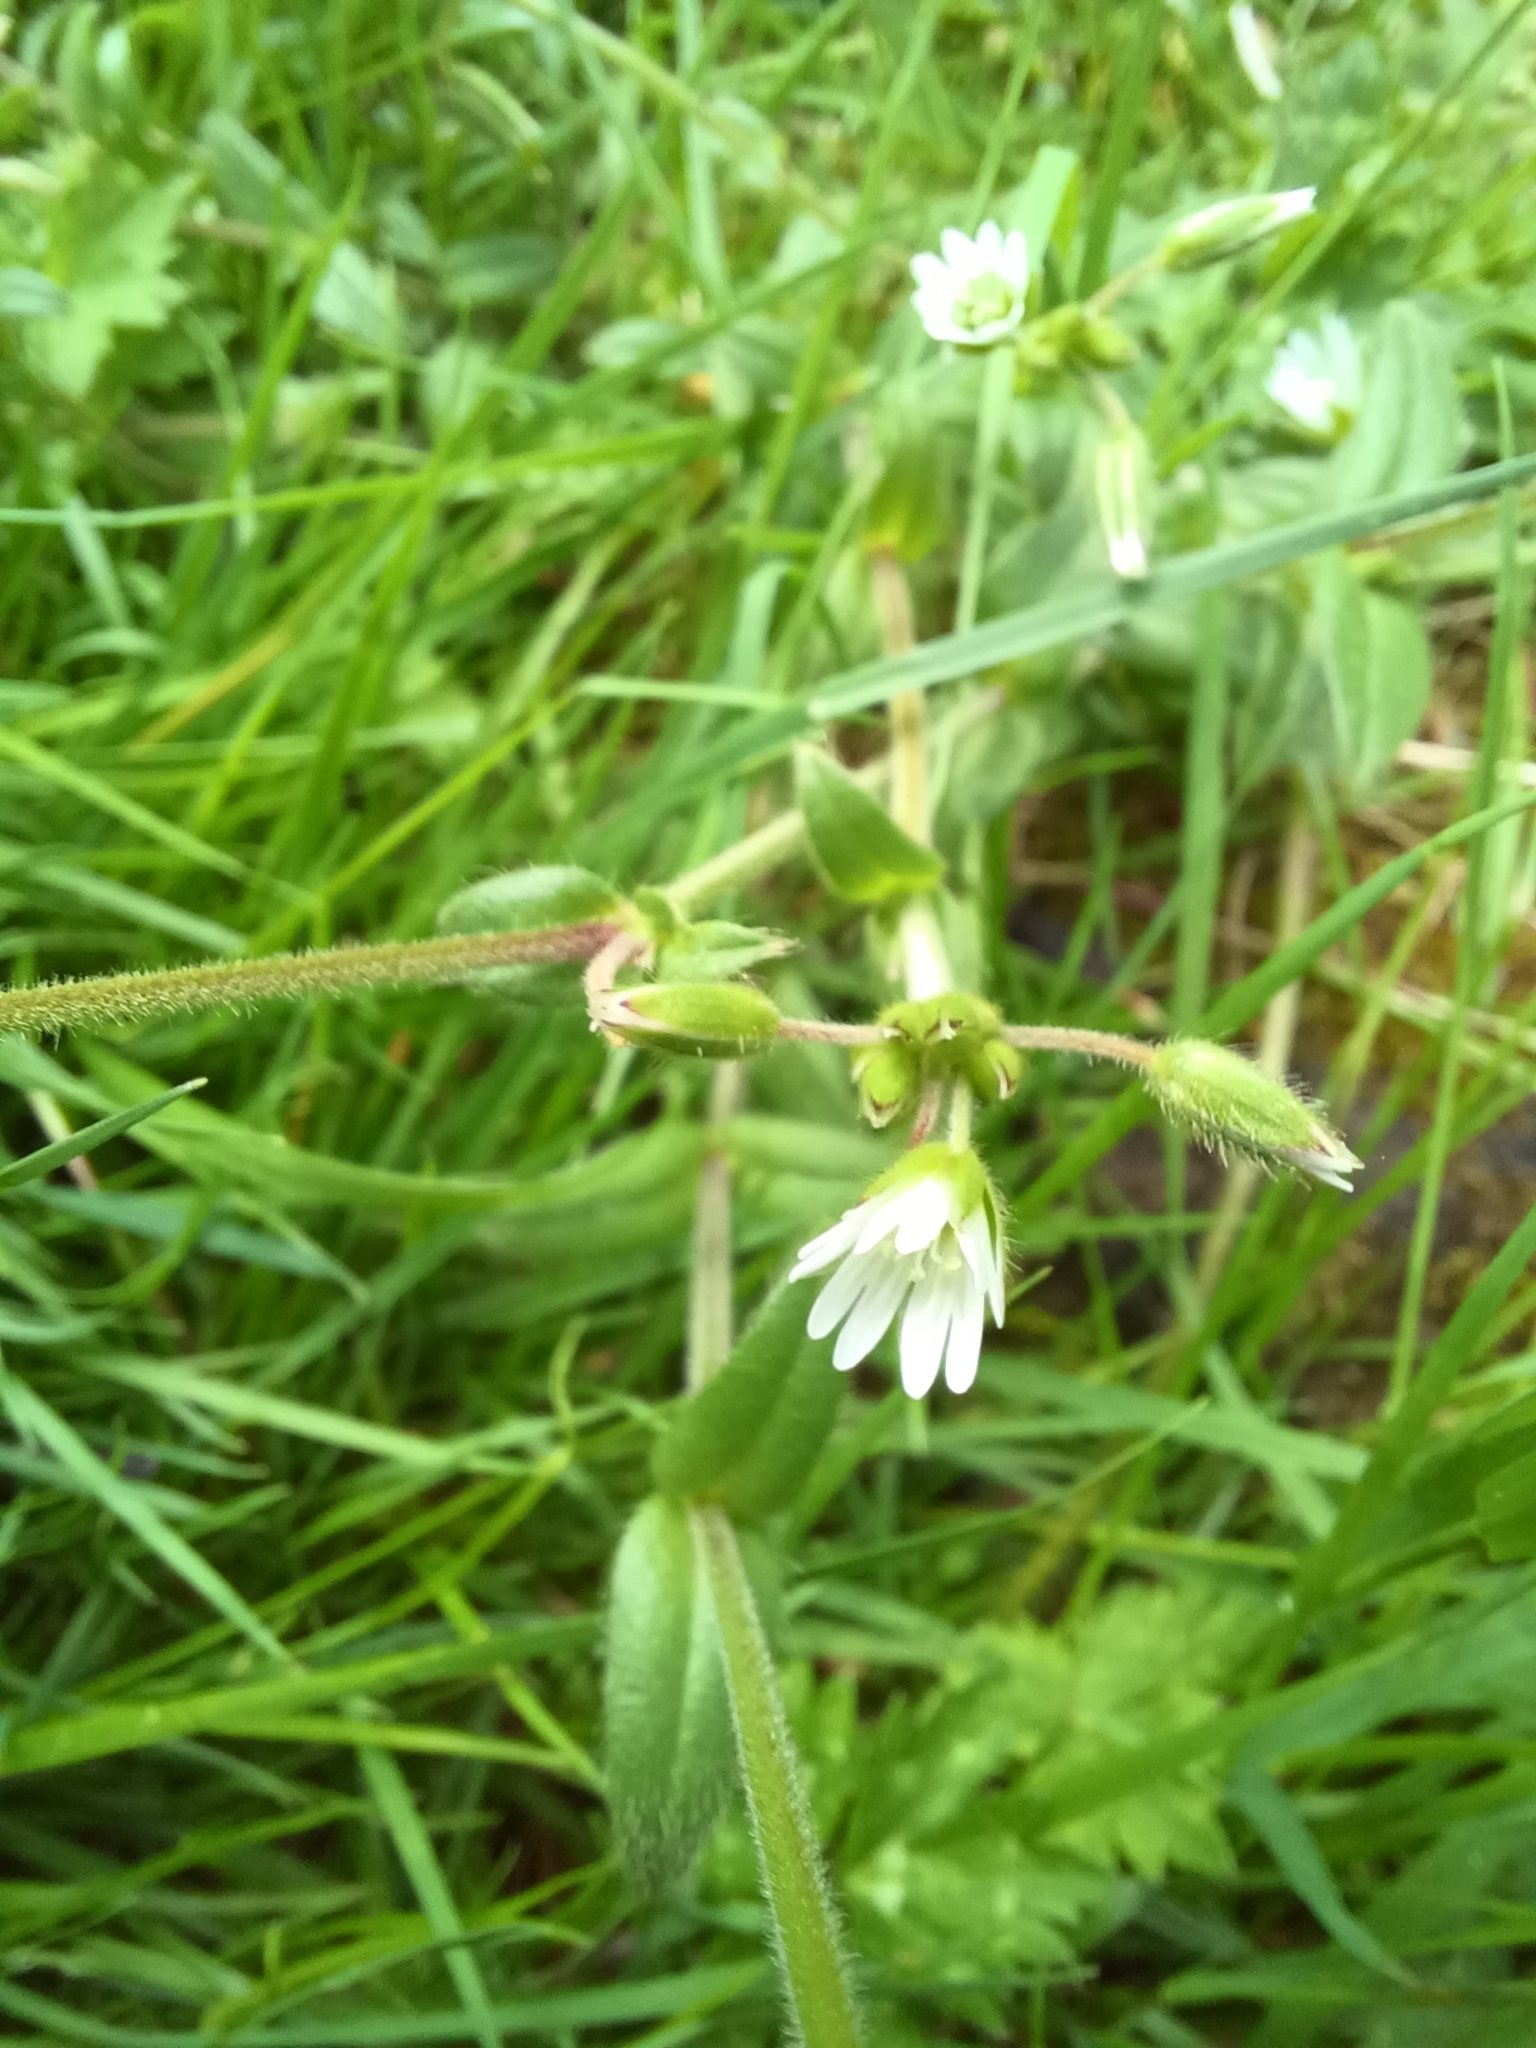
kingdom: Plantae
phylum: Tracheophyta
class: Magnoliopsida
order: Caryophyllales
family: Caryophyllaceae
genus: Cerastium
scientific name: Cerastium fontanum
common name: Common mouse-ear
